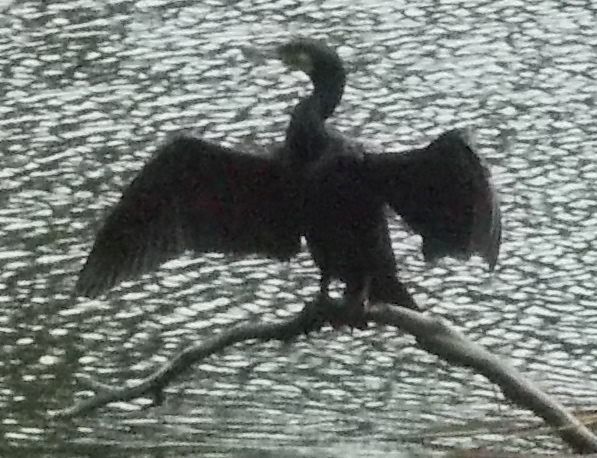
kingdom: Animalia
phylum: Chordata
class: Aves
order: Suliformes
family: Phalacrocoracidae
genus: Phalacrocorax
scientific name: Phalacrocorax carbo
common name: Great cormorant
